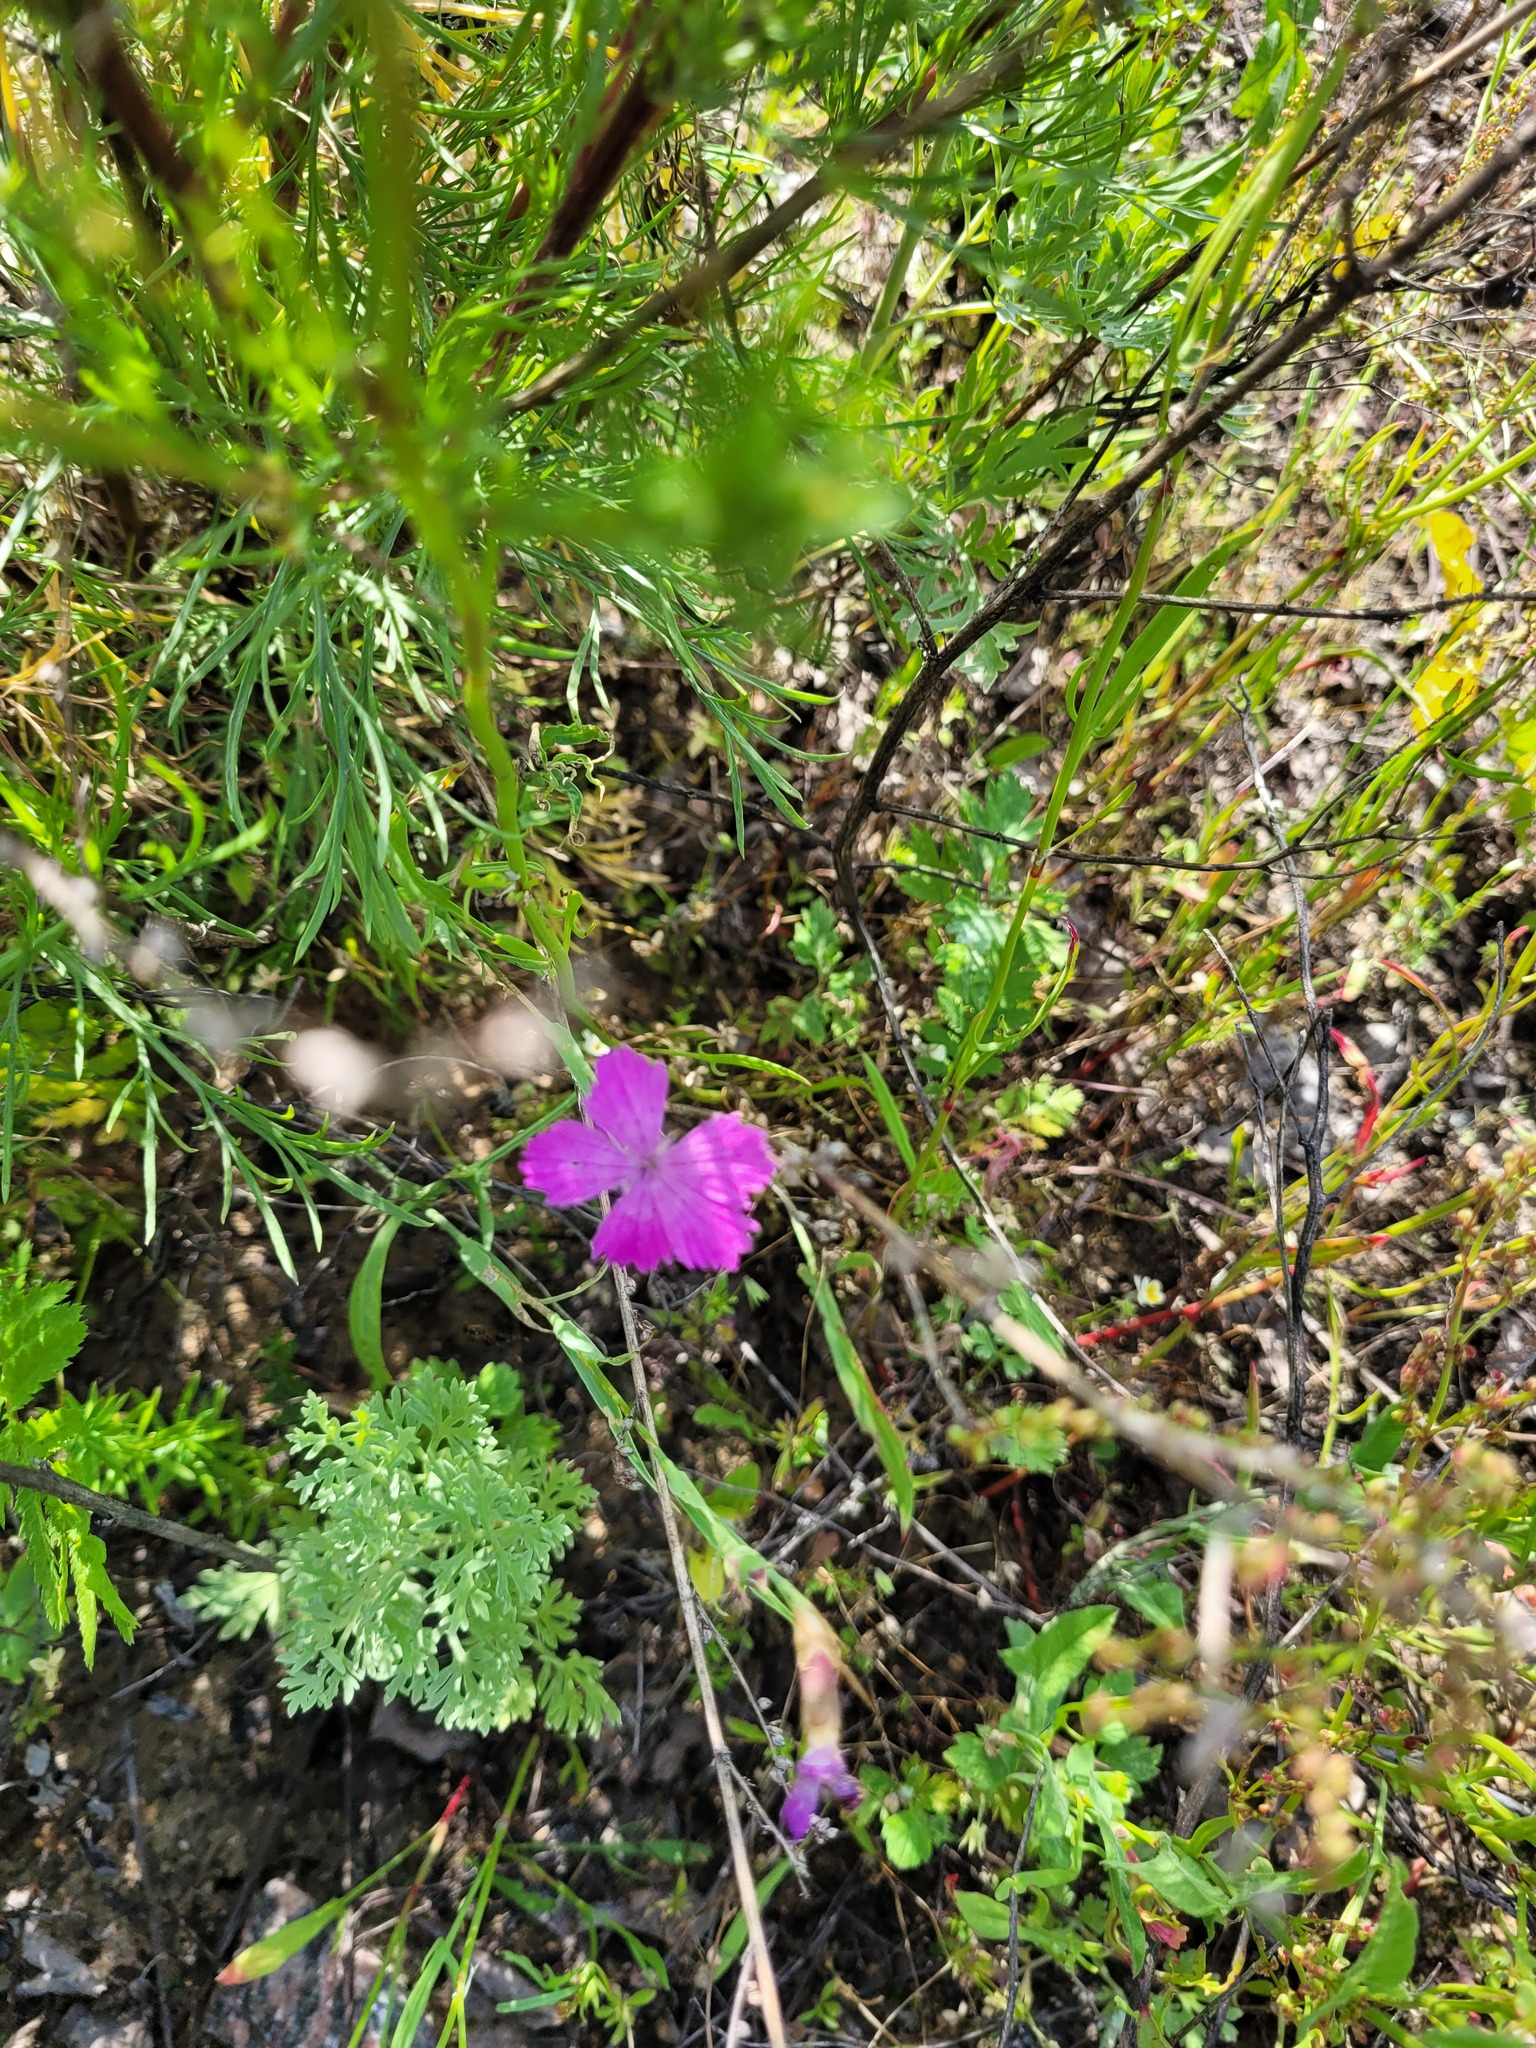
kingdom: Plantae
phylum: Tracheophyta
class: Magnoliopsida
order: Caryophyllales
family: Caryophyllaceae
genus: Dianthus
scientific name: Dianthus chinensis
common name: Rainbow pink
